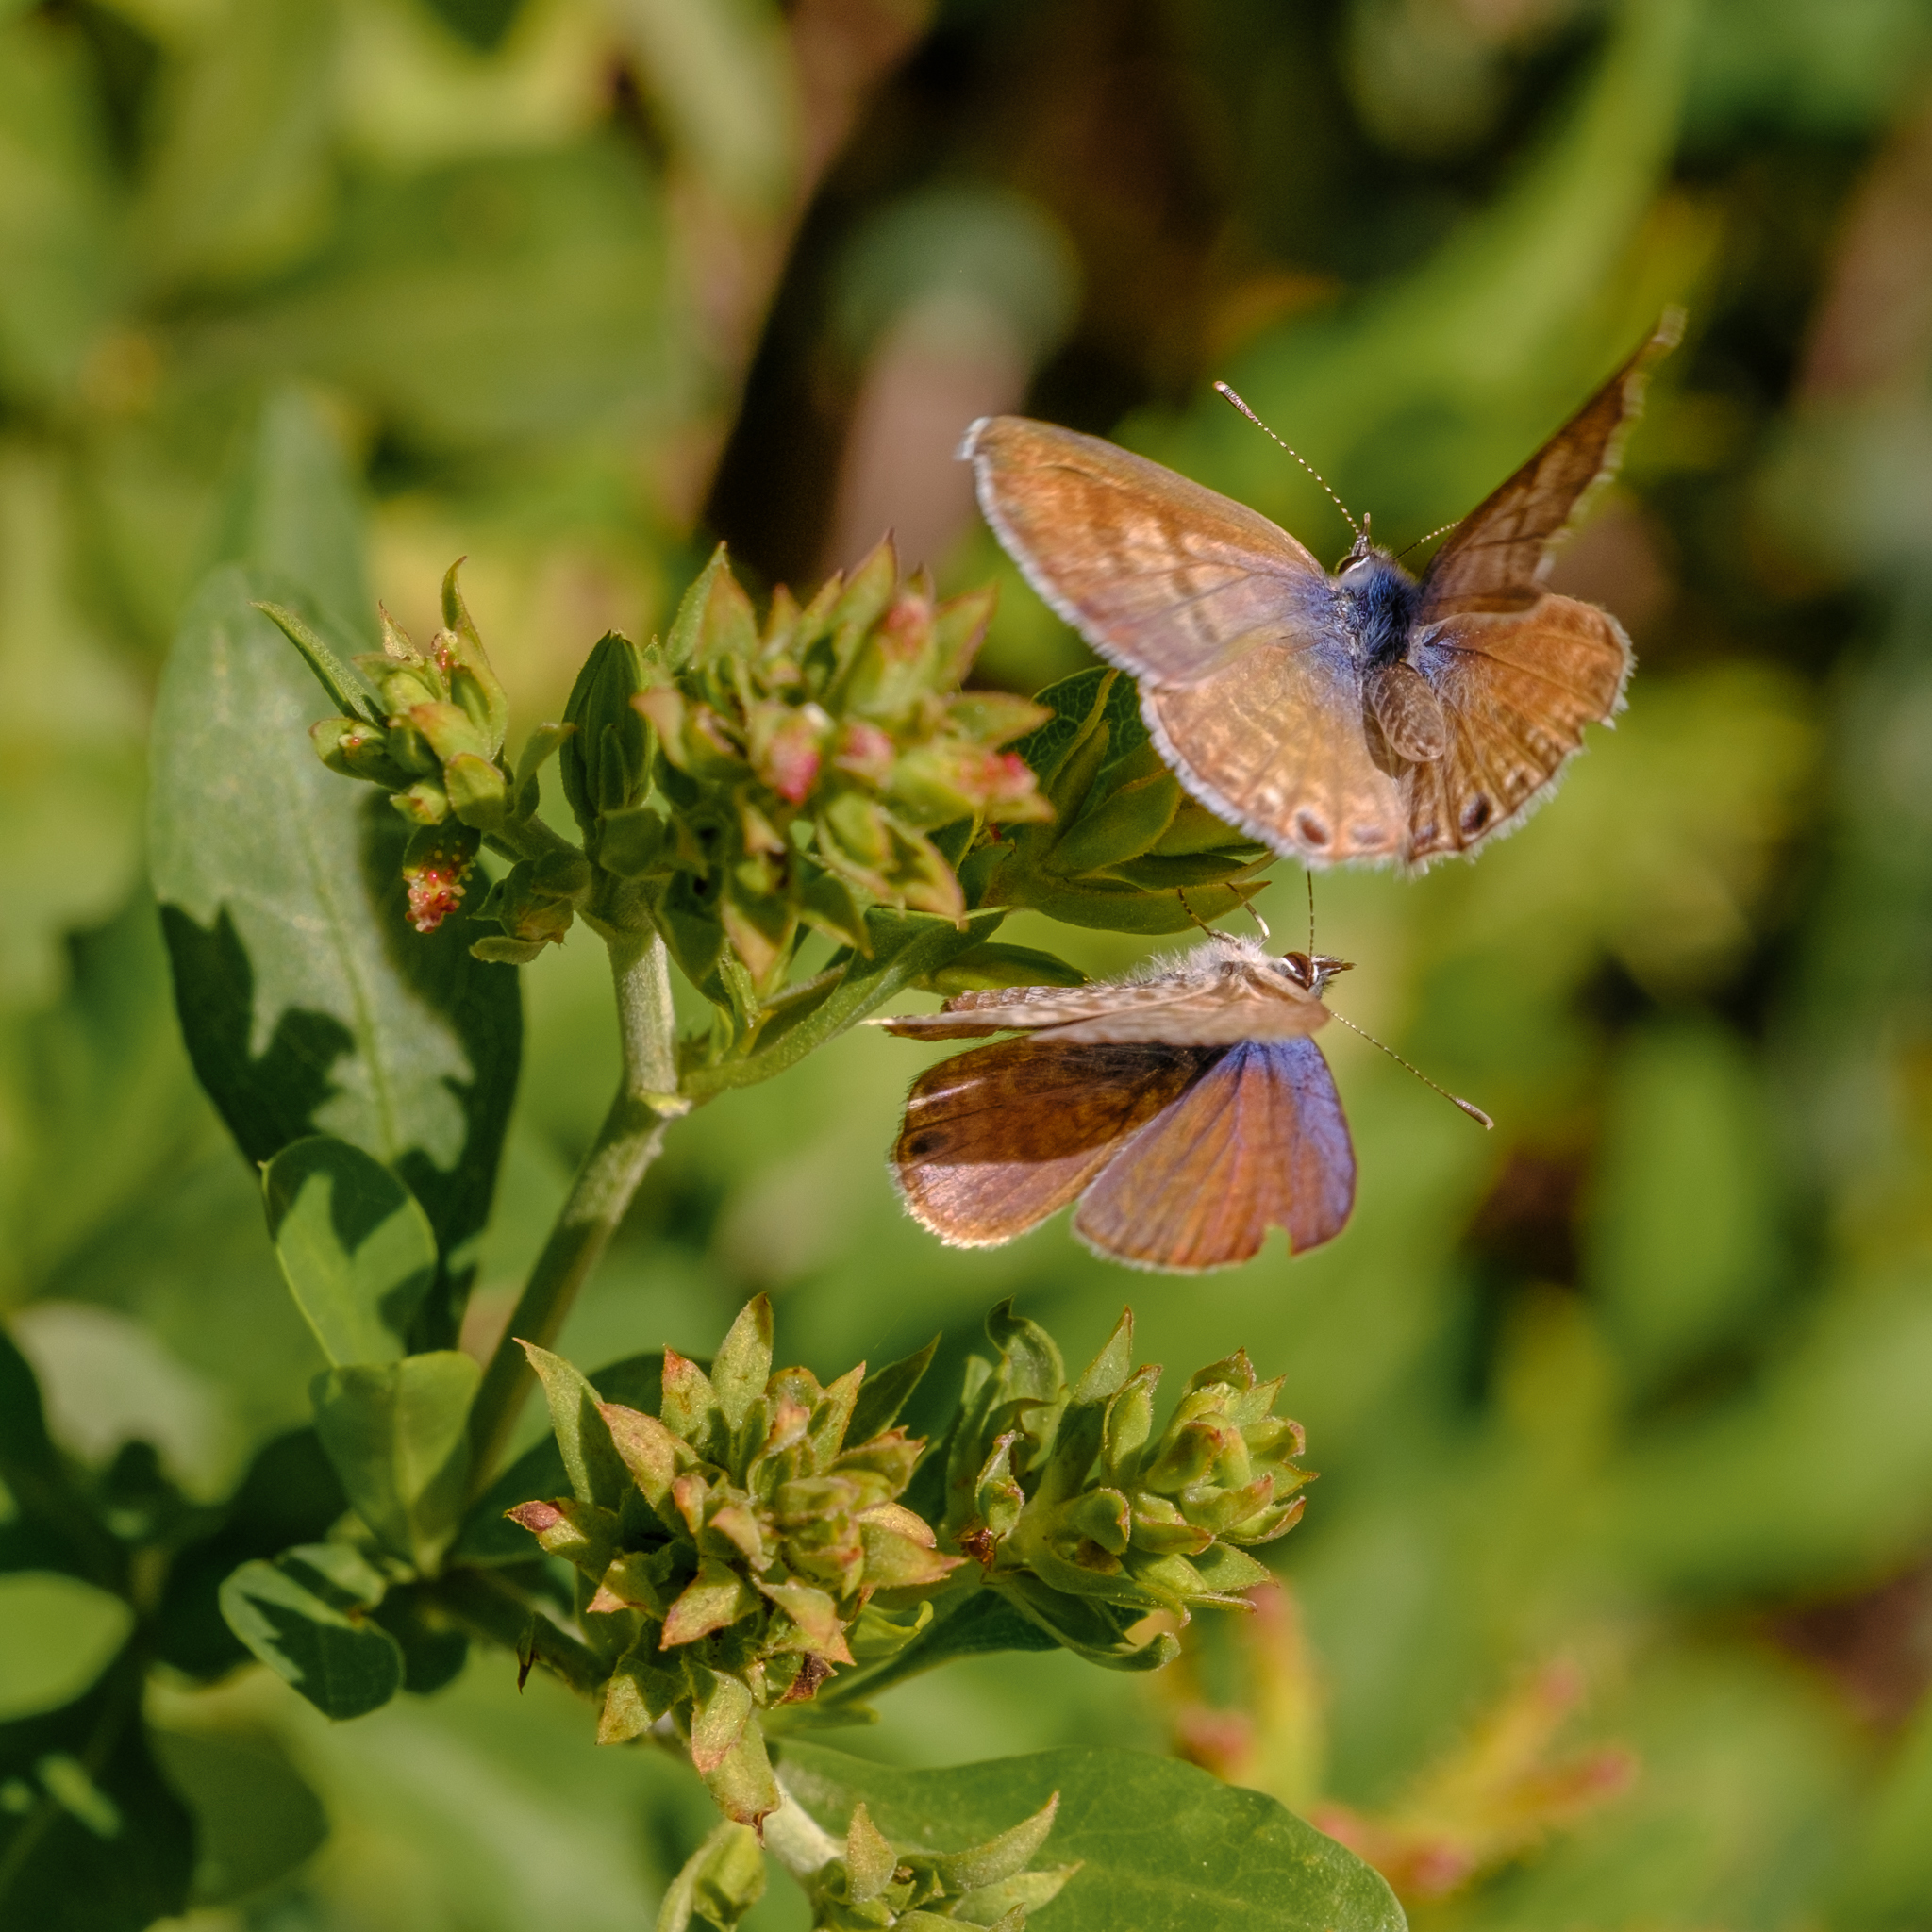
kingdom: Animalia
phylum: Arthropoda
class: Insecta
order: Lepidoptera
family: Lycaenidae
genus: Leptotes
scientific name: Leptotes marina
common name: Marine blue
